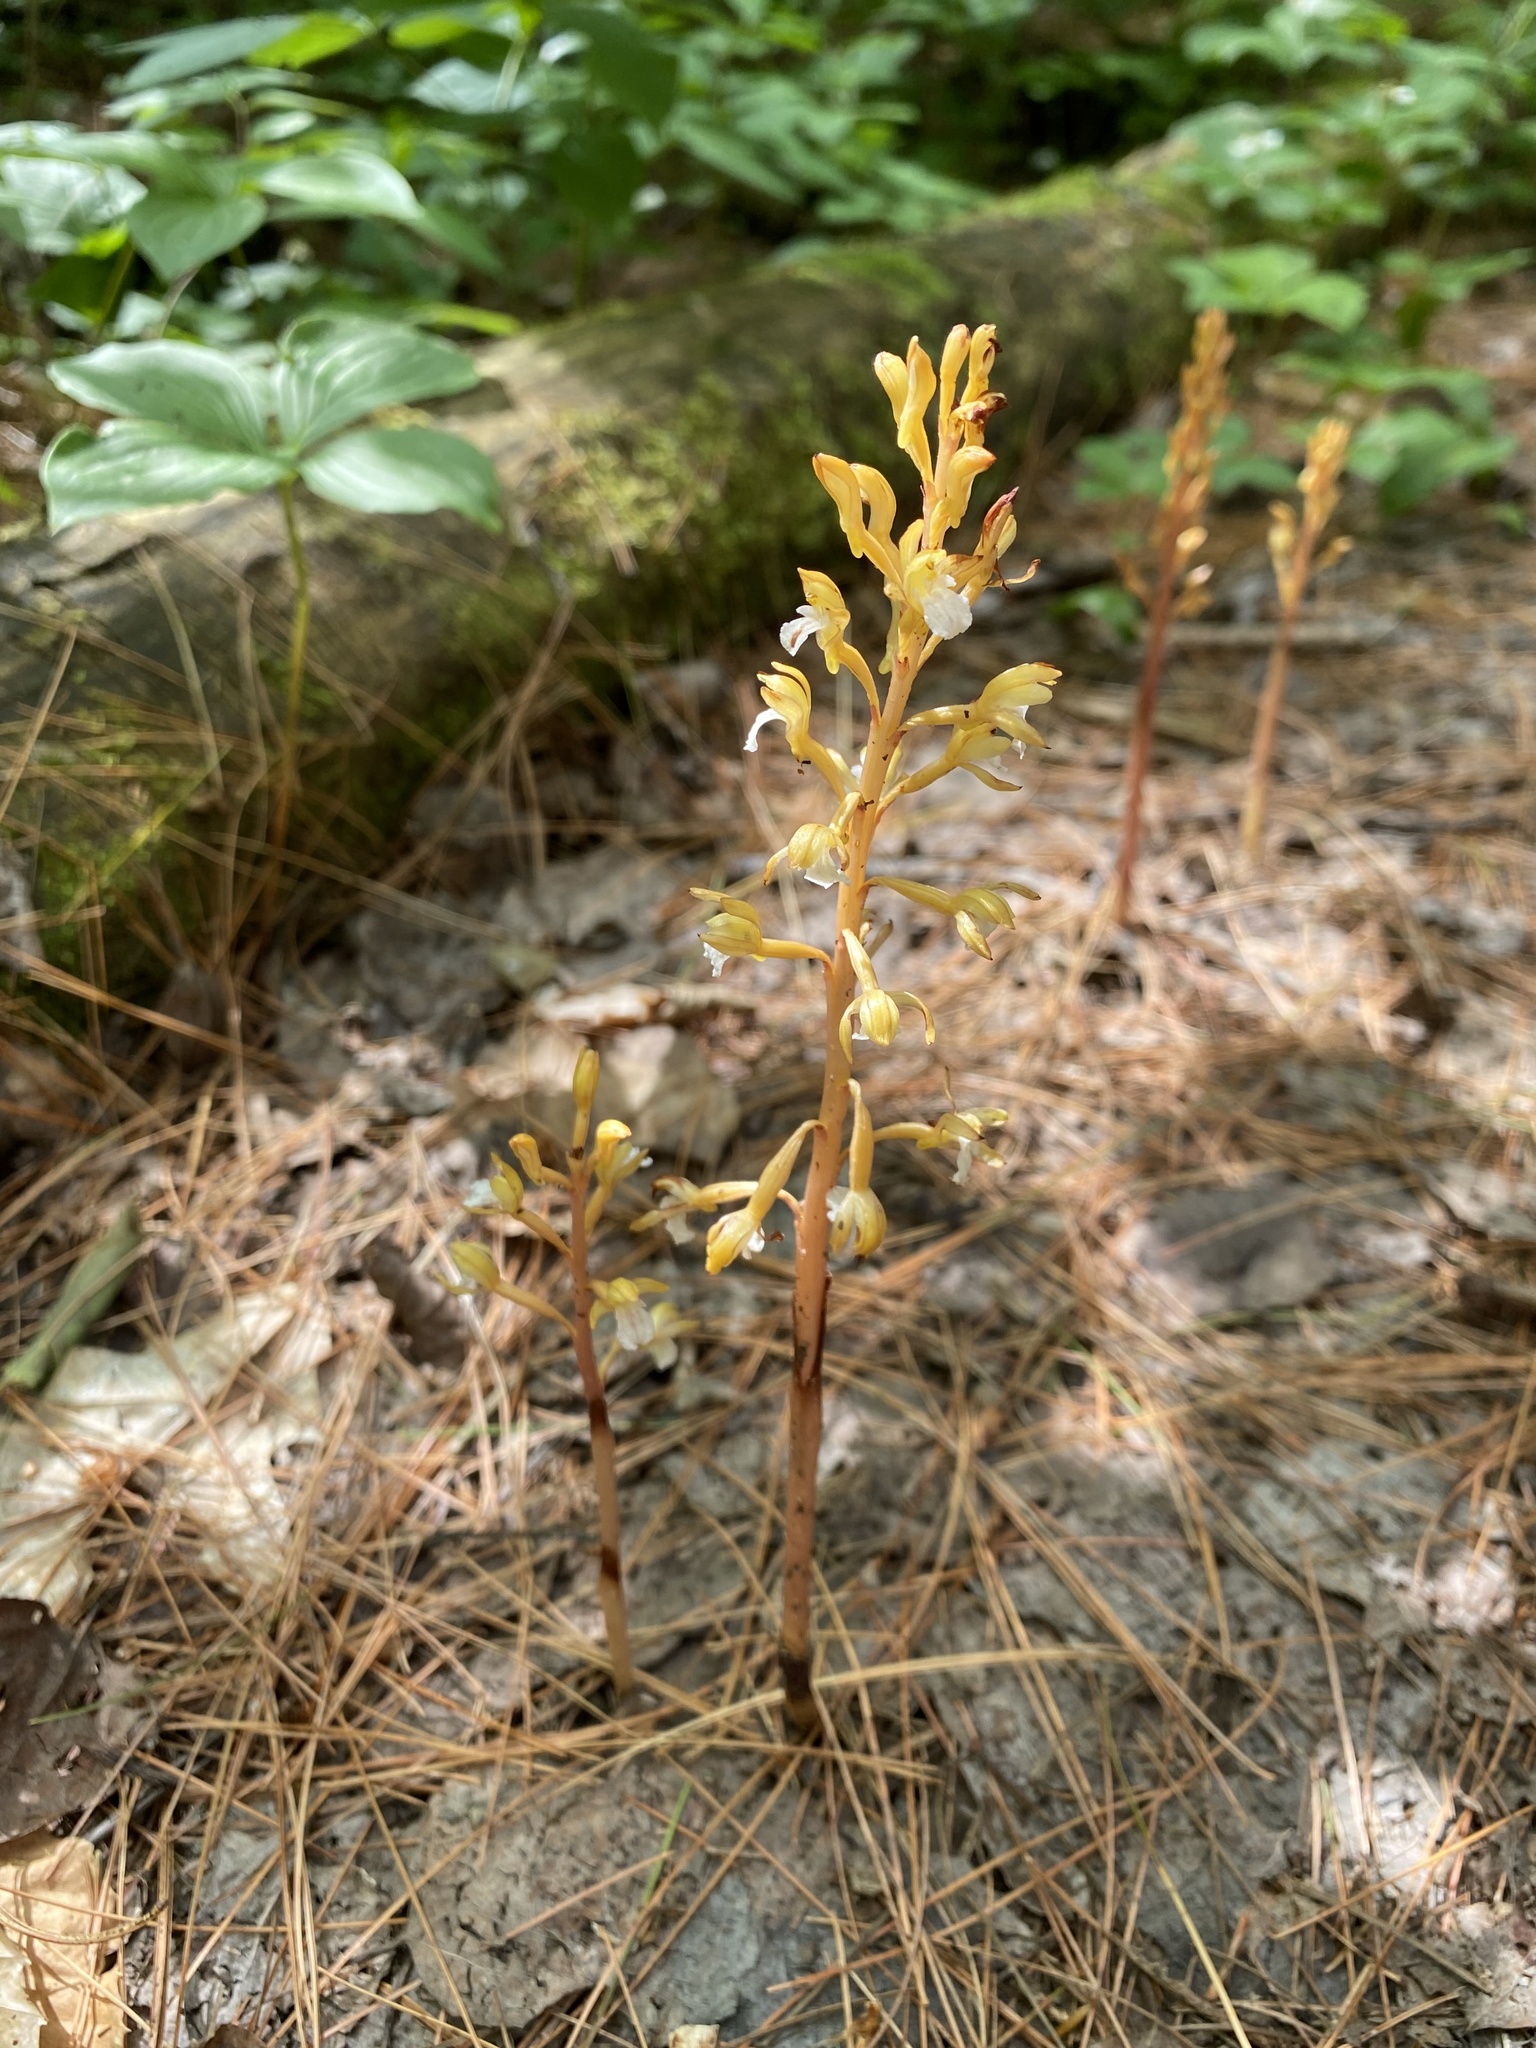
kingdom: Plantae
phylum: Tracheophyta
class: Liliopsida
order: Asparagales
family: Orchidaceae
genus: Corallorhiza
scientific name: Corallorhiza maculata
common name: Spotted coralroot
